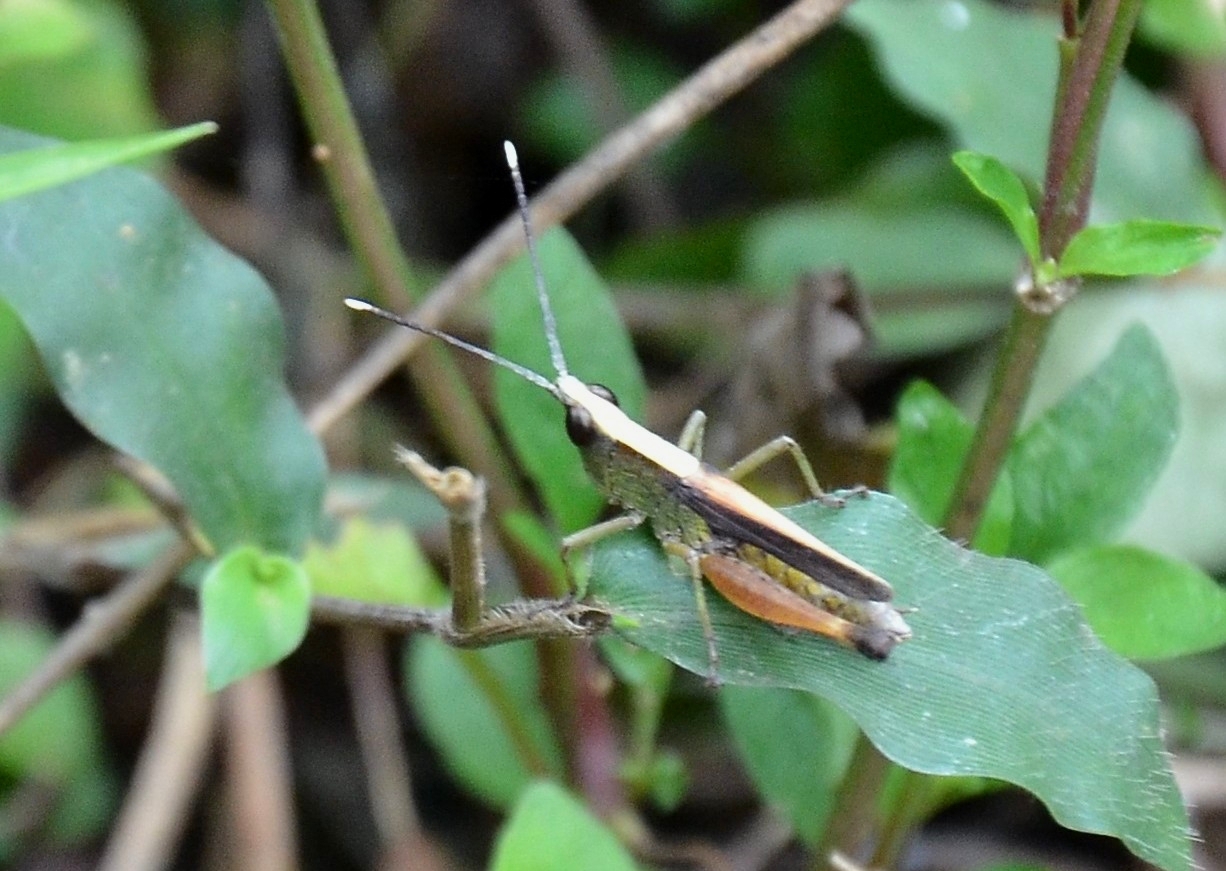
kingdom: Animalia
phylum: Arthropoda
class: Insecta
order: Orthoptera
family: Acrididae
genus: Phlaeoba
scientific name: Phlaeoba antennata
